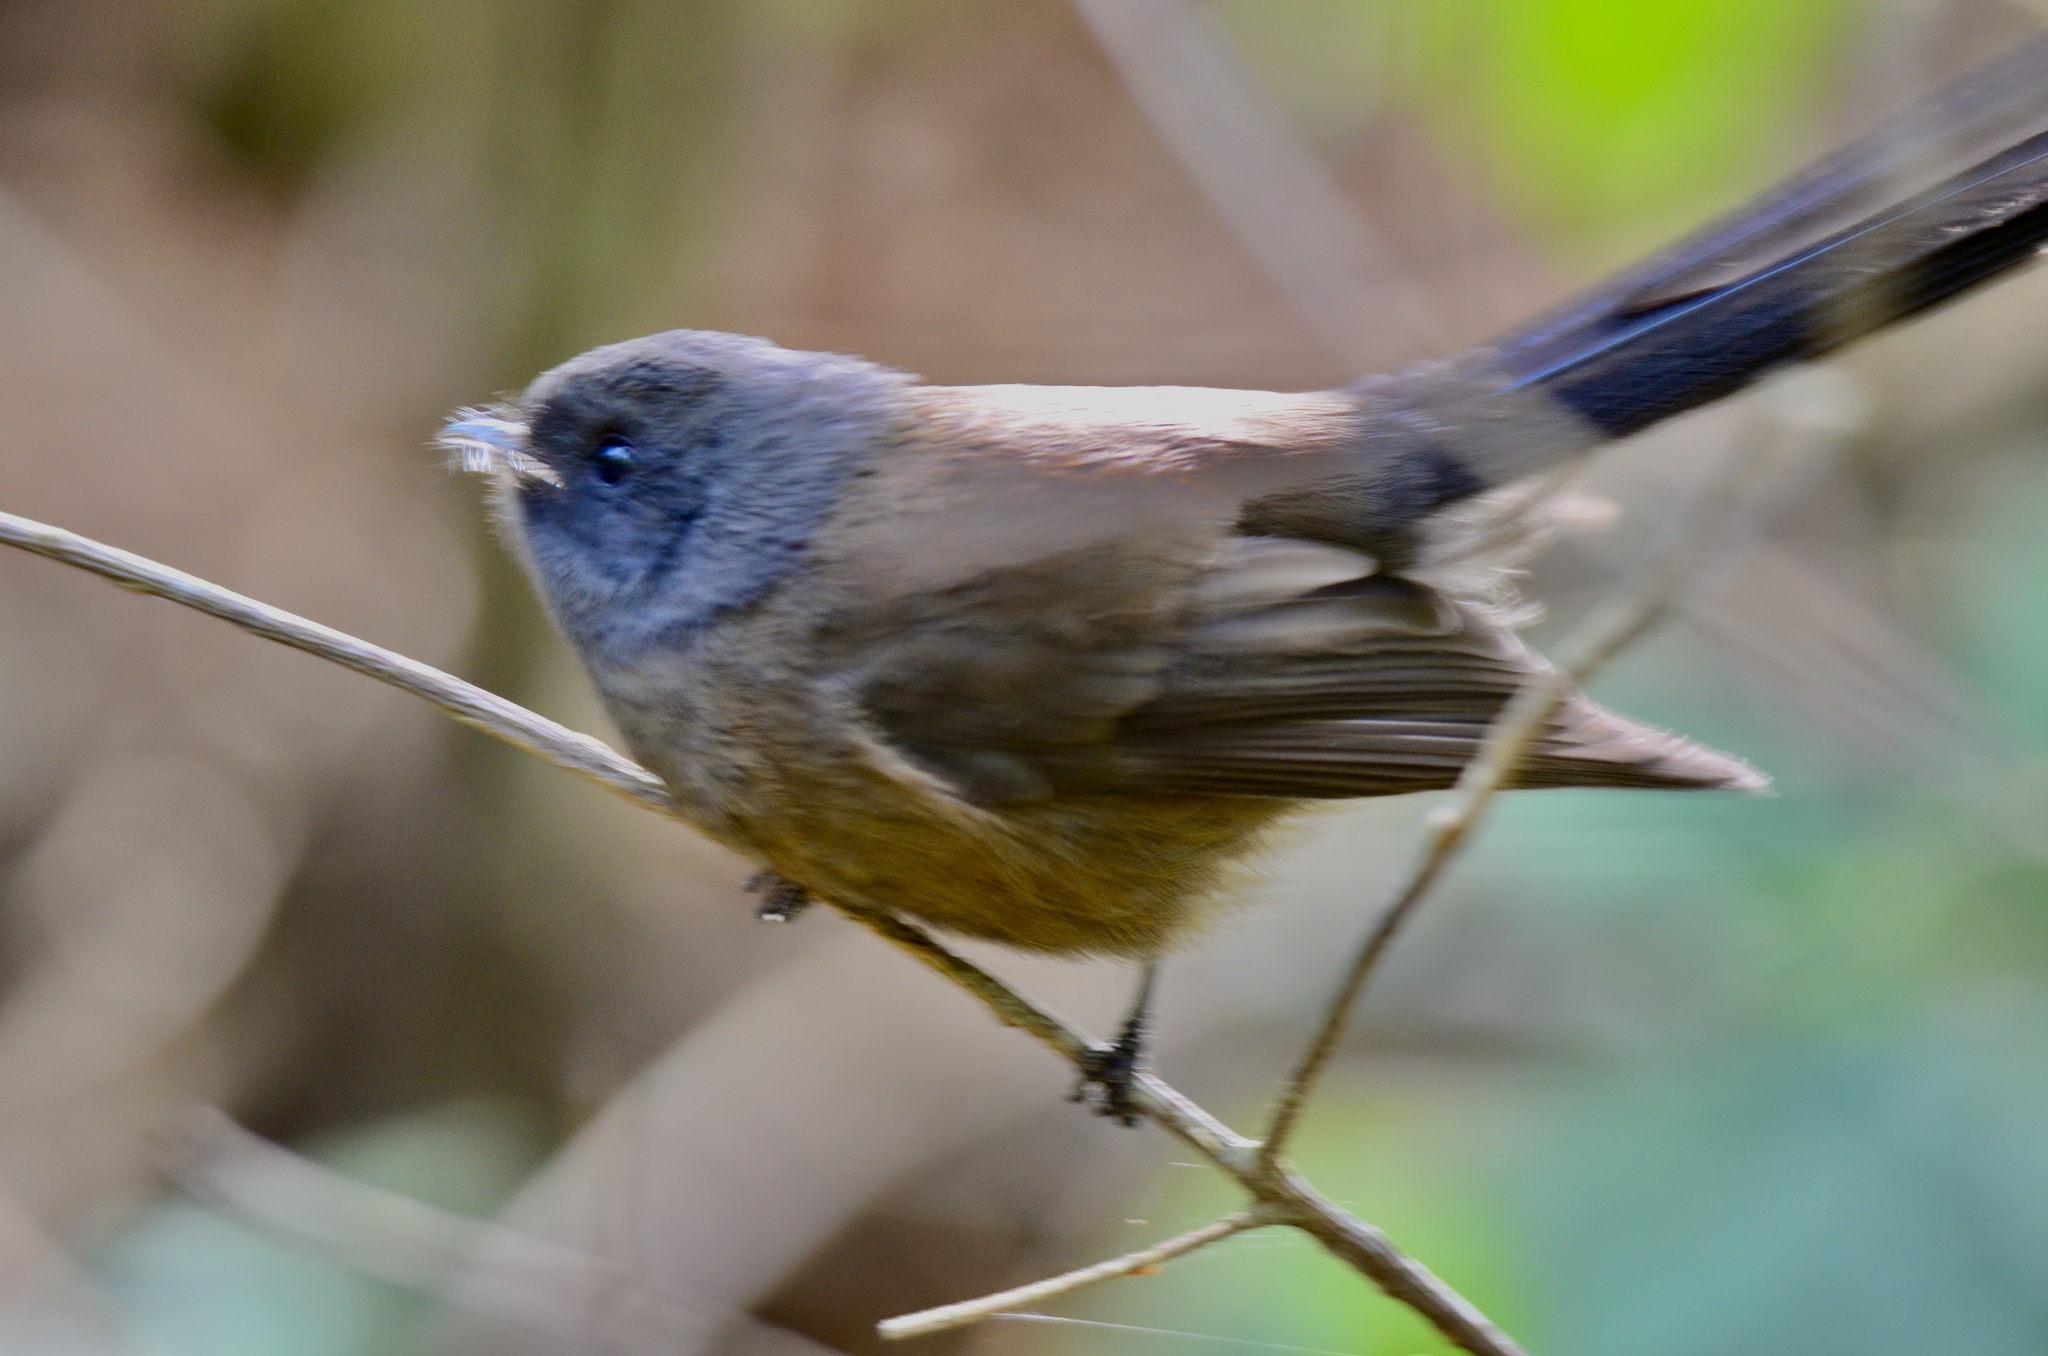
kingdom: Animalia
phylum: Chordata
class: Aves
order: Passeriformes
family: Rhipiduridae
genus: Rhipidura
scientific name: Rhipidura fuliginosa
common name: New zealand fantail
